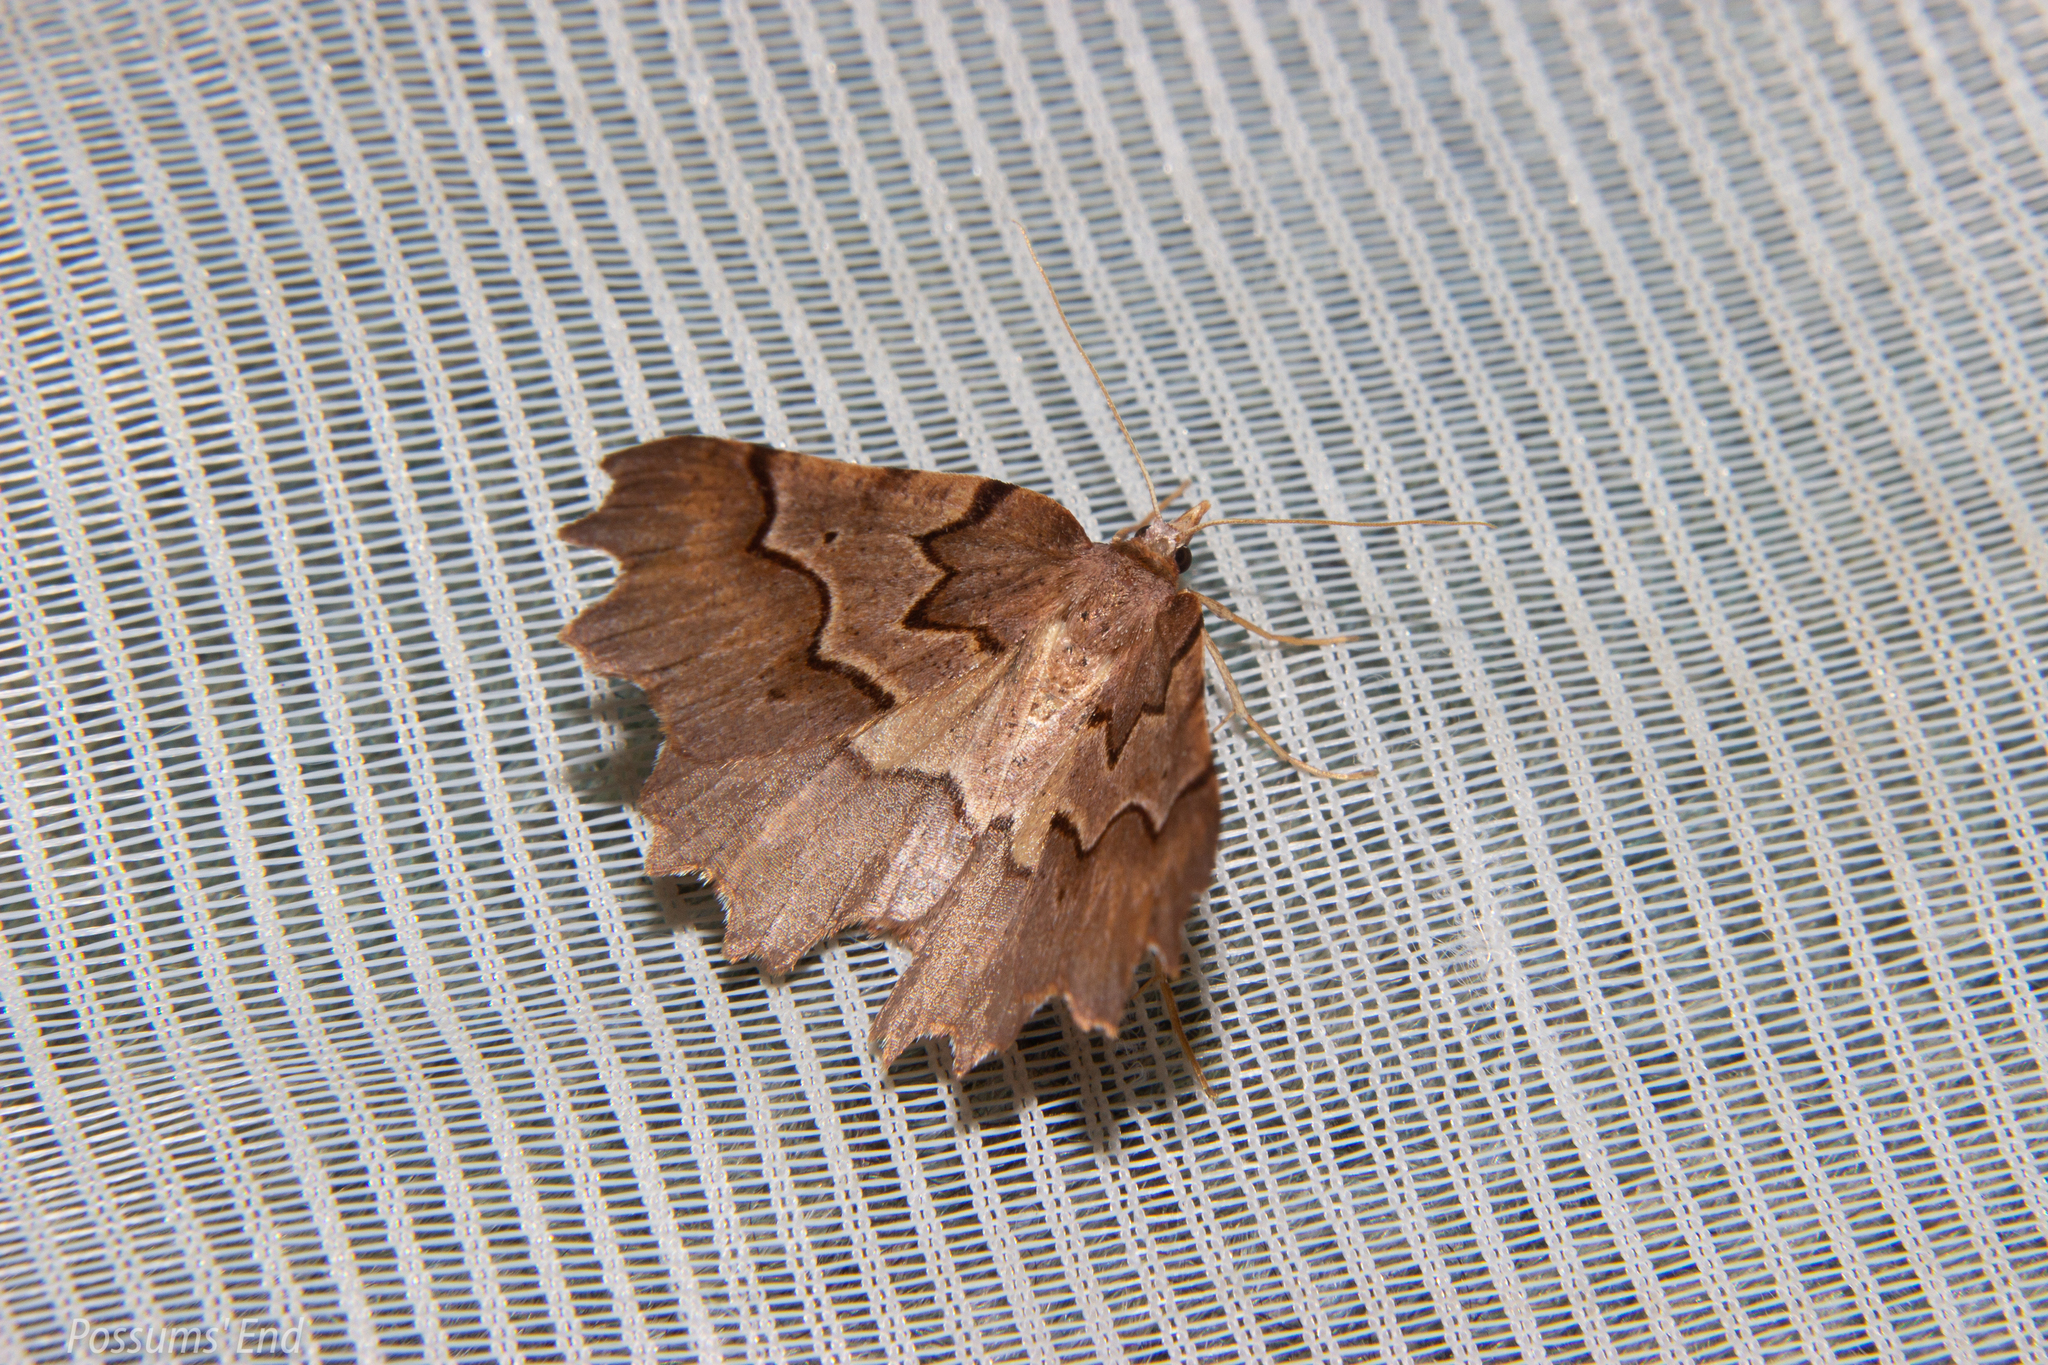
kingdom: Animalia
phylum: Arthropoda
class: Insecta
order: Lepidoptera
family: Geometridae
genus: Ischalis
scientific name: Ischalis fortinata
